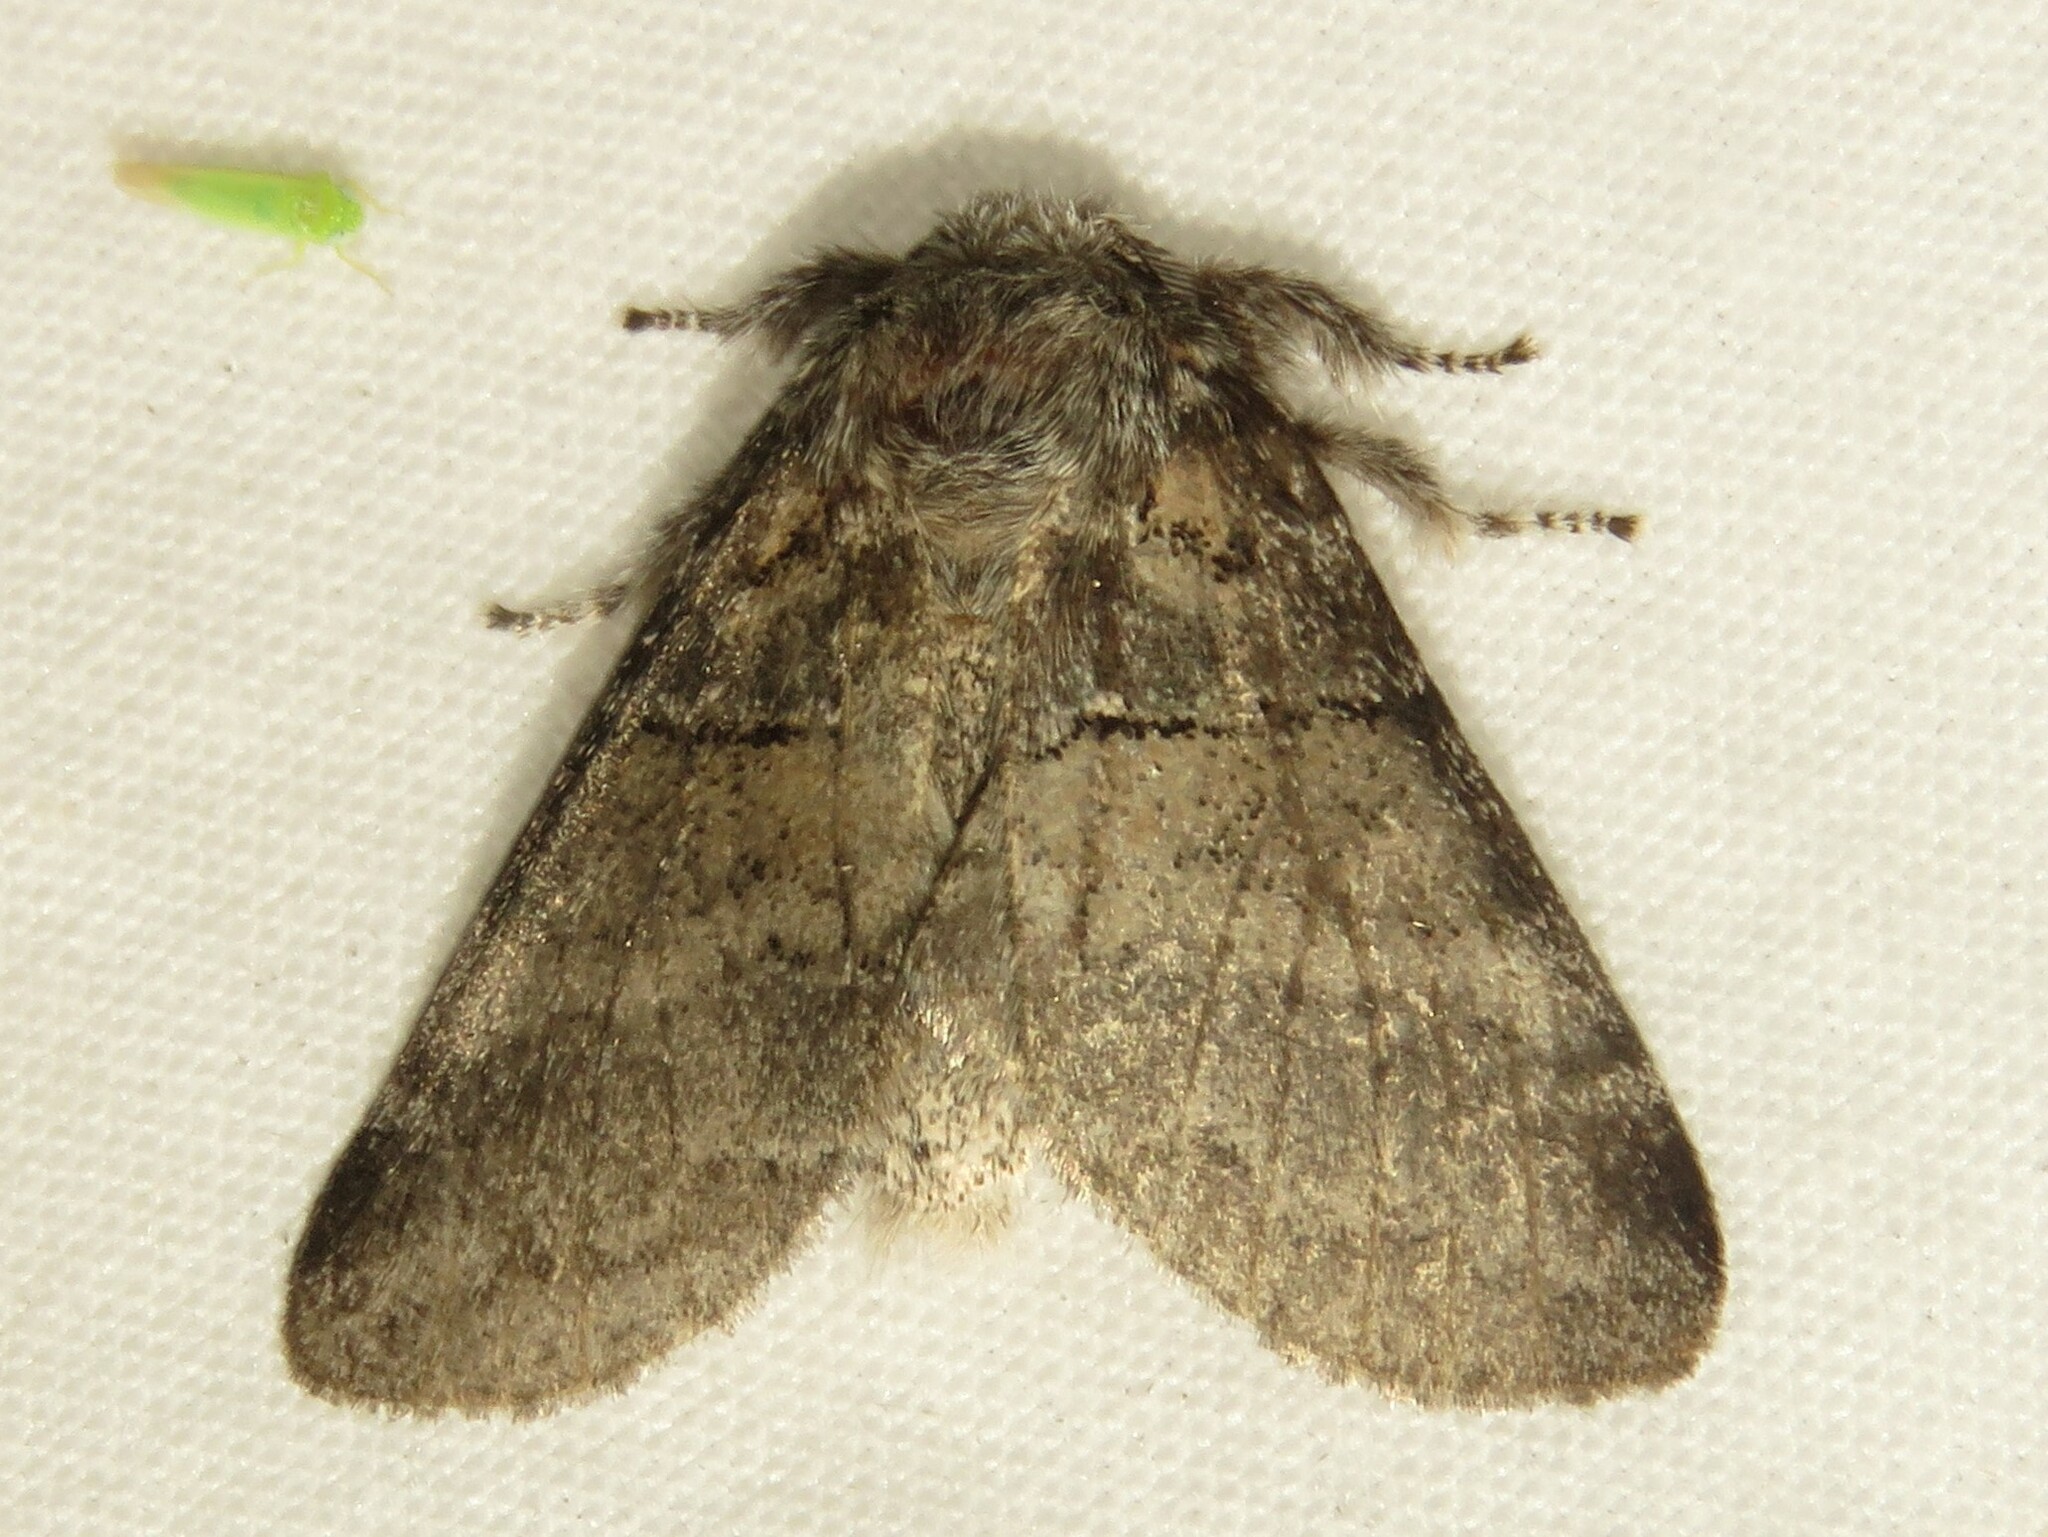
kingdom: Animalia
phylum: Arthropoda
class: Insecta
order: Lepidoptera
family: Notodontidae
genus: Gluphisia
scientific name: Gluphisia septentrionis
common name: Common gluphisia
